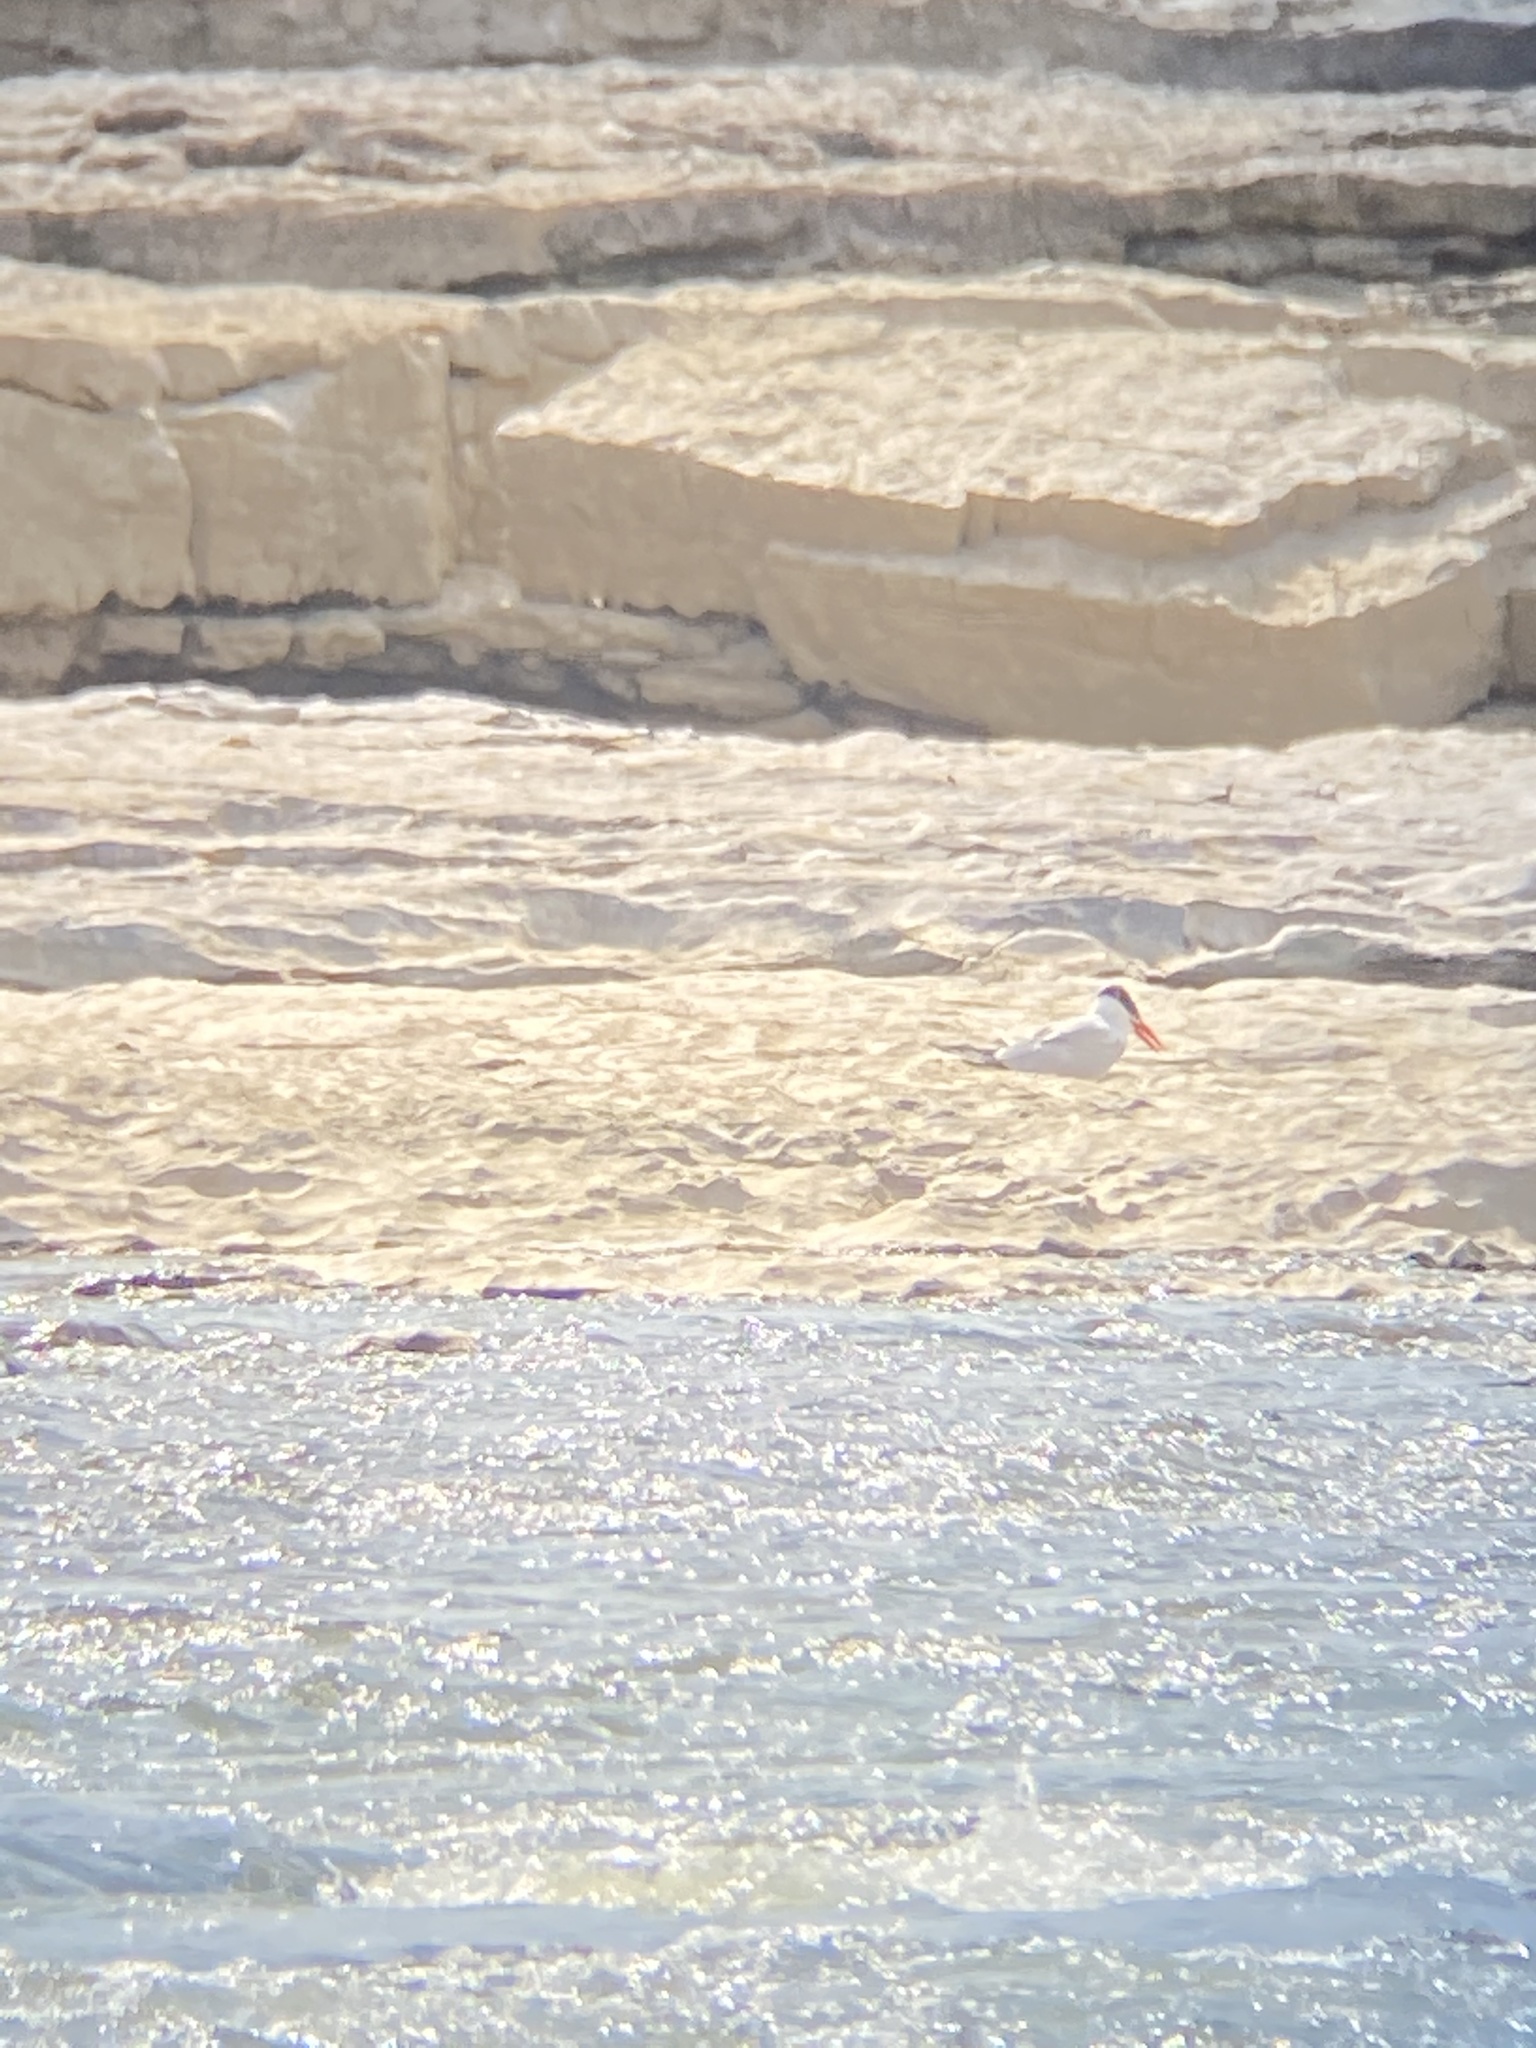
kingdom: Animalia
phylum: Chordata
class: Aves
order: Charadriiformes
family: Laridae
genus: Hydroprogne
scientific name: Hydroprogne caspia
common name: Caspian tern
